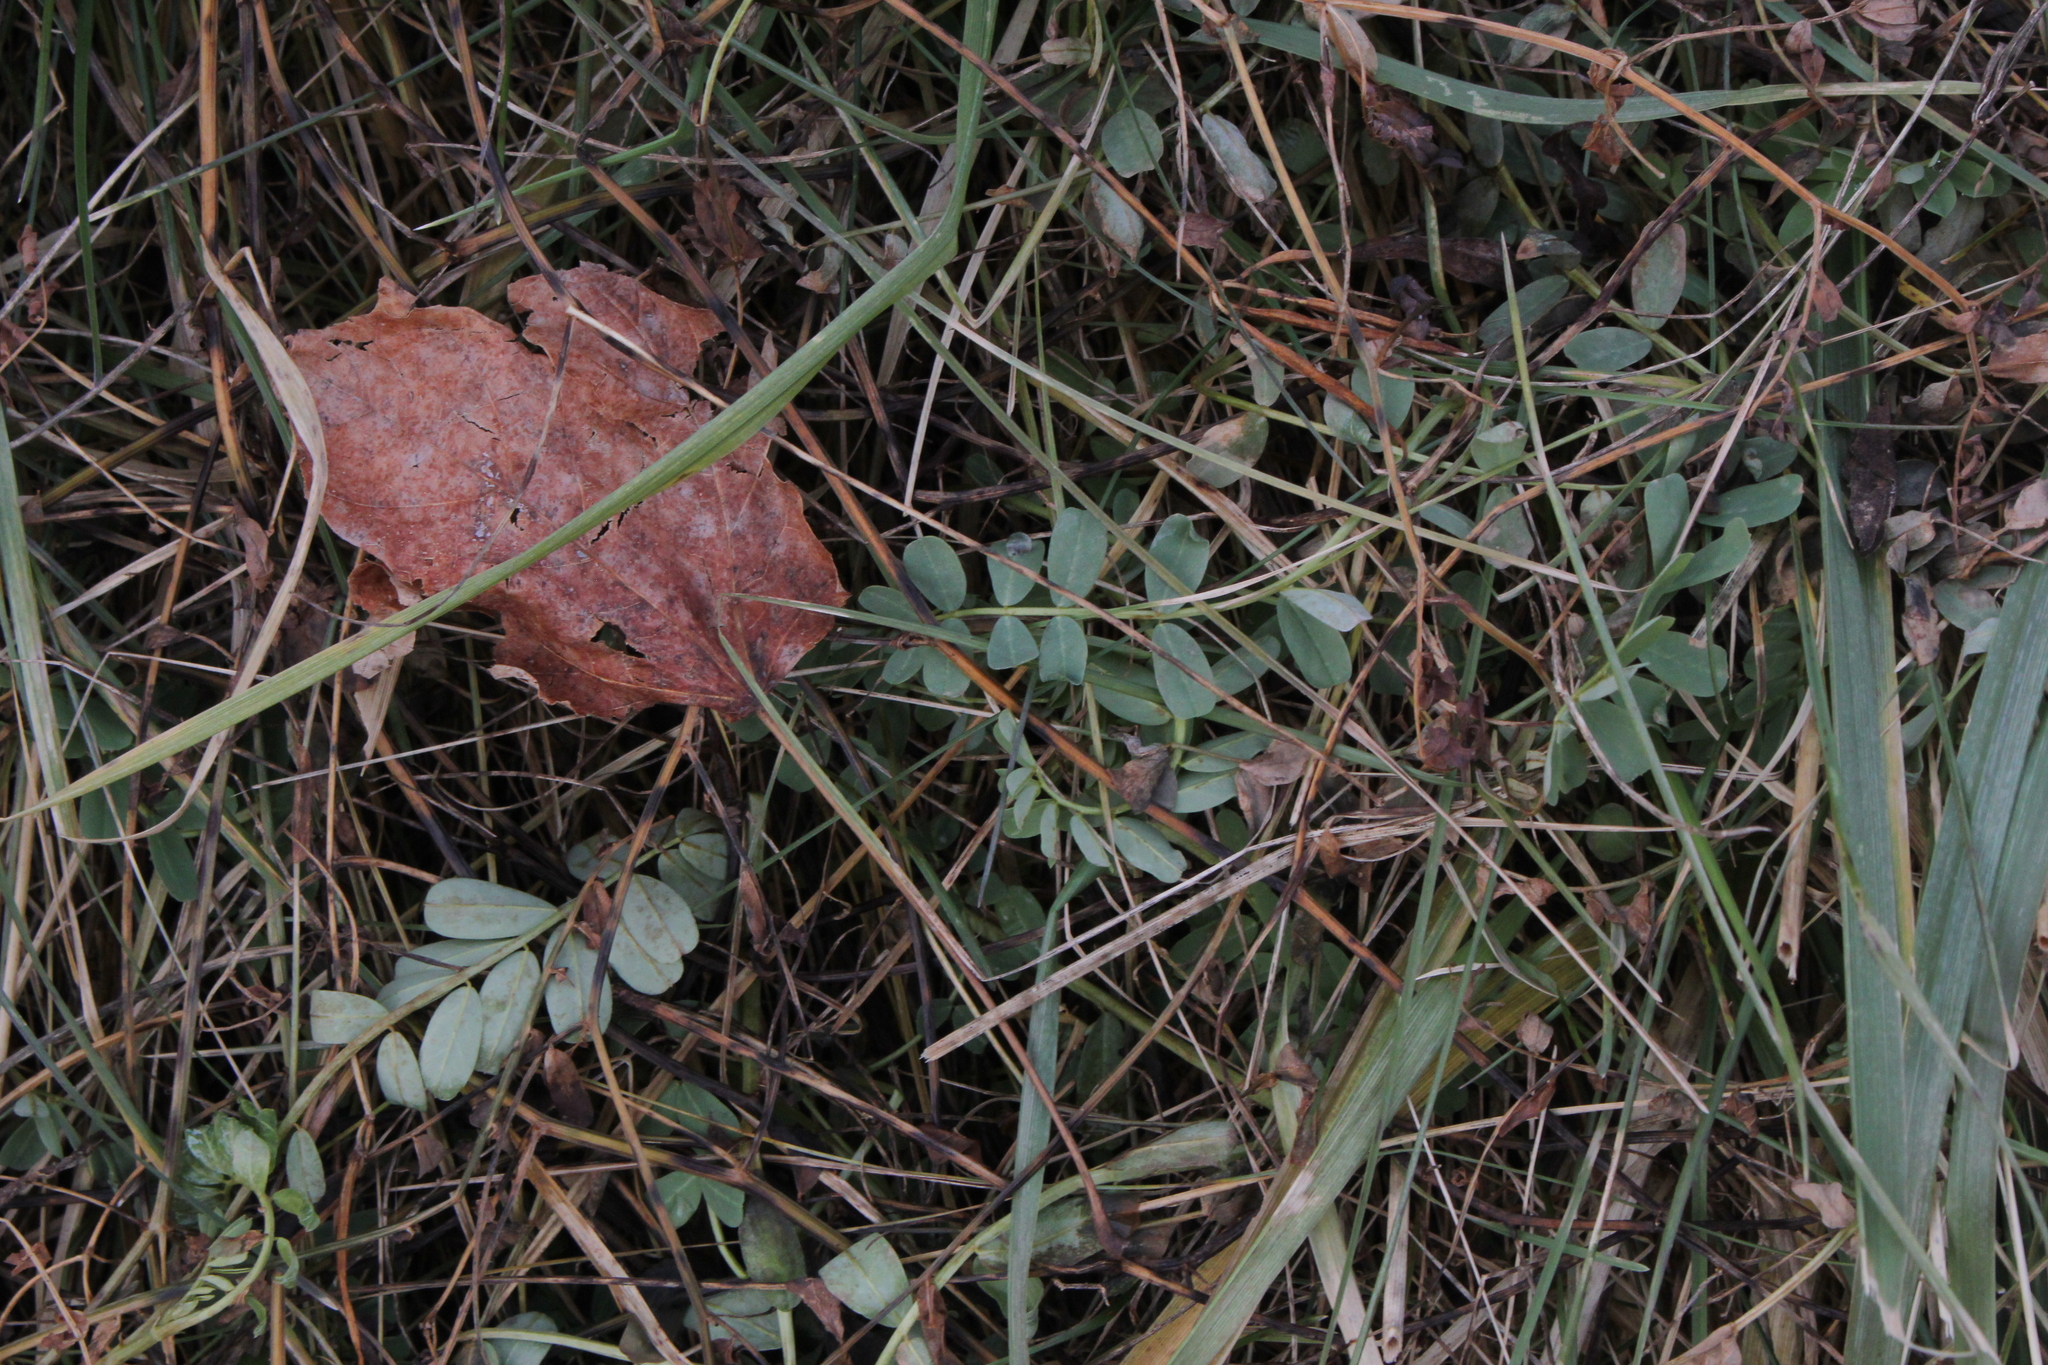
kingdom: Plantae
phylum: Tracheophyta
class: Magnoliopsida
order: Fabales
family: Fabaceae
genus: Coronilla
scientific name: Coronilla varia
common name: Crownvetch
